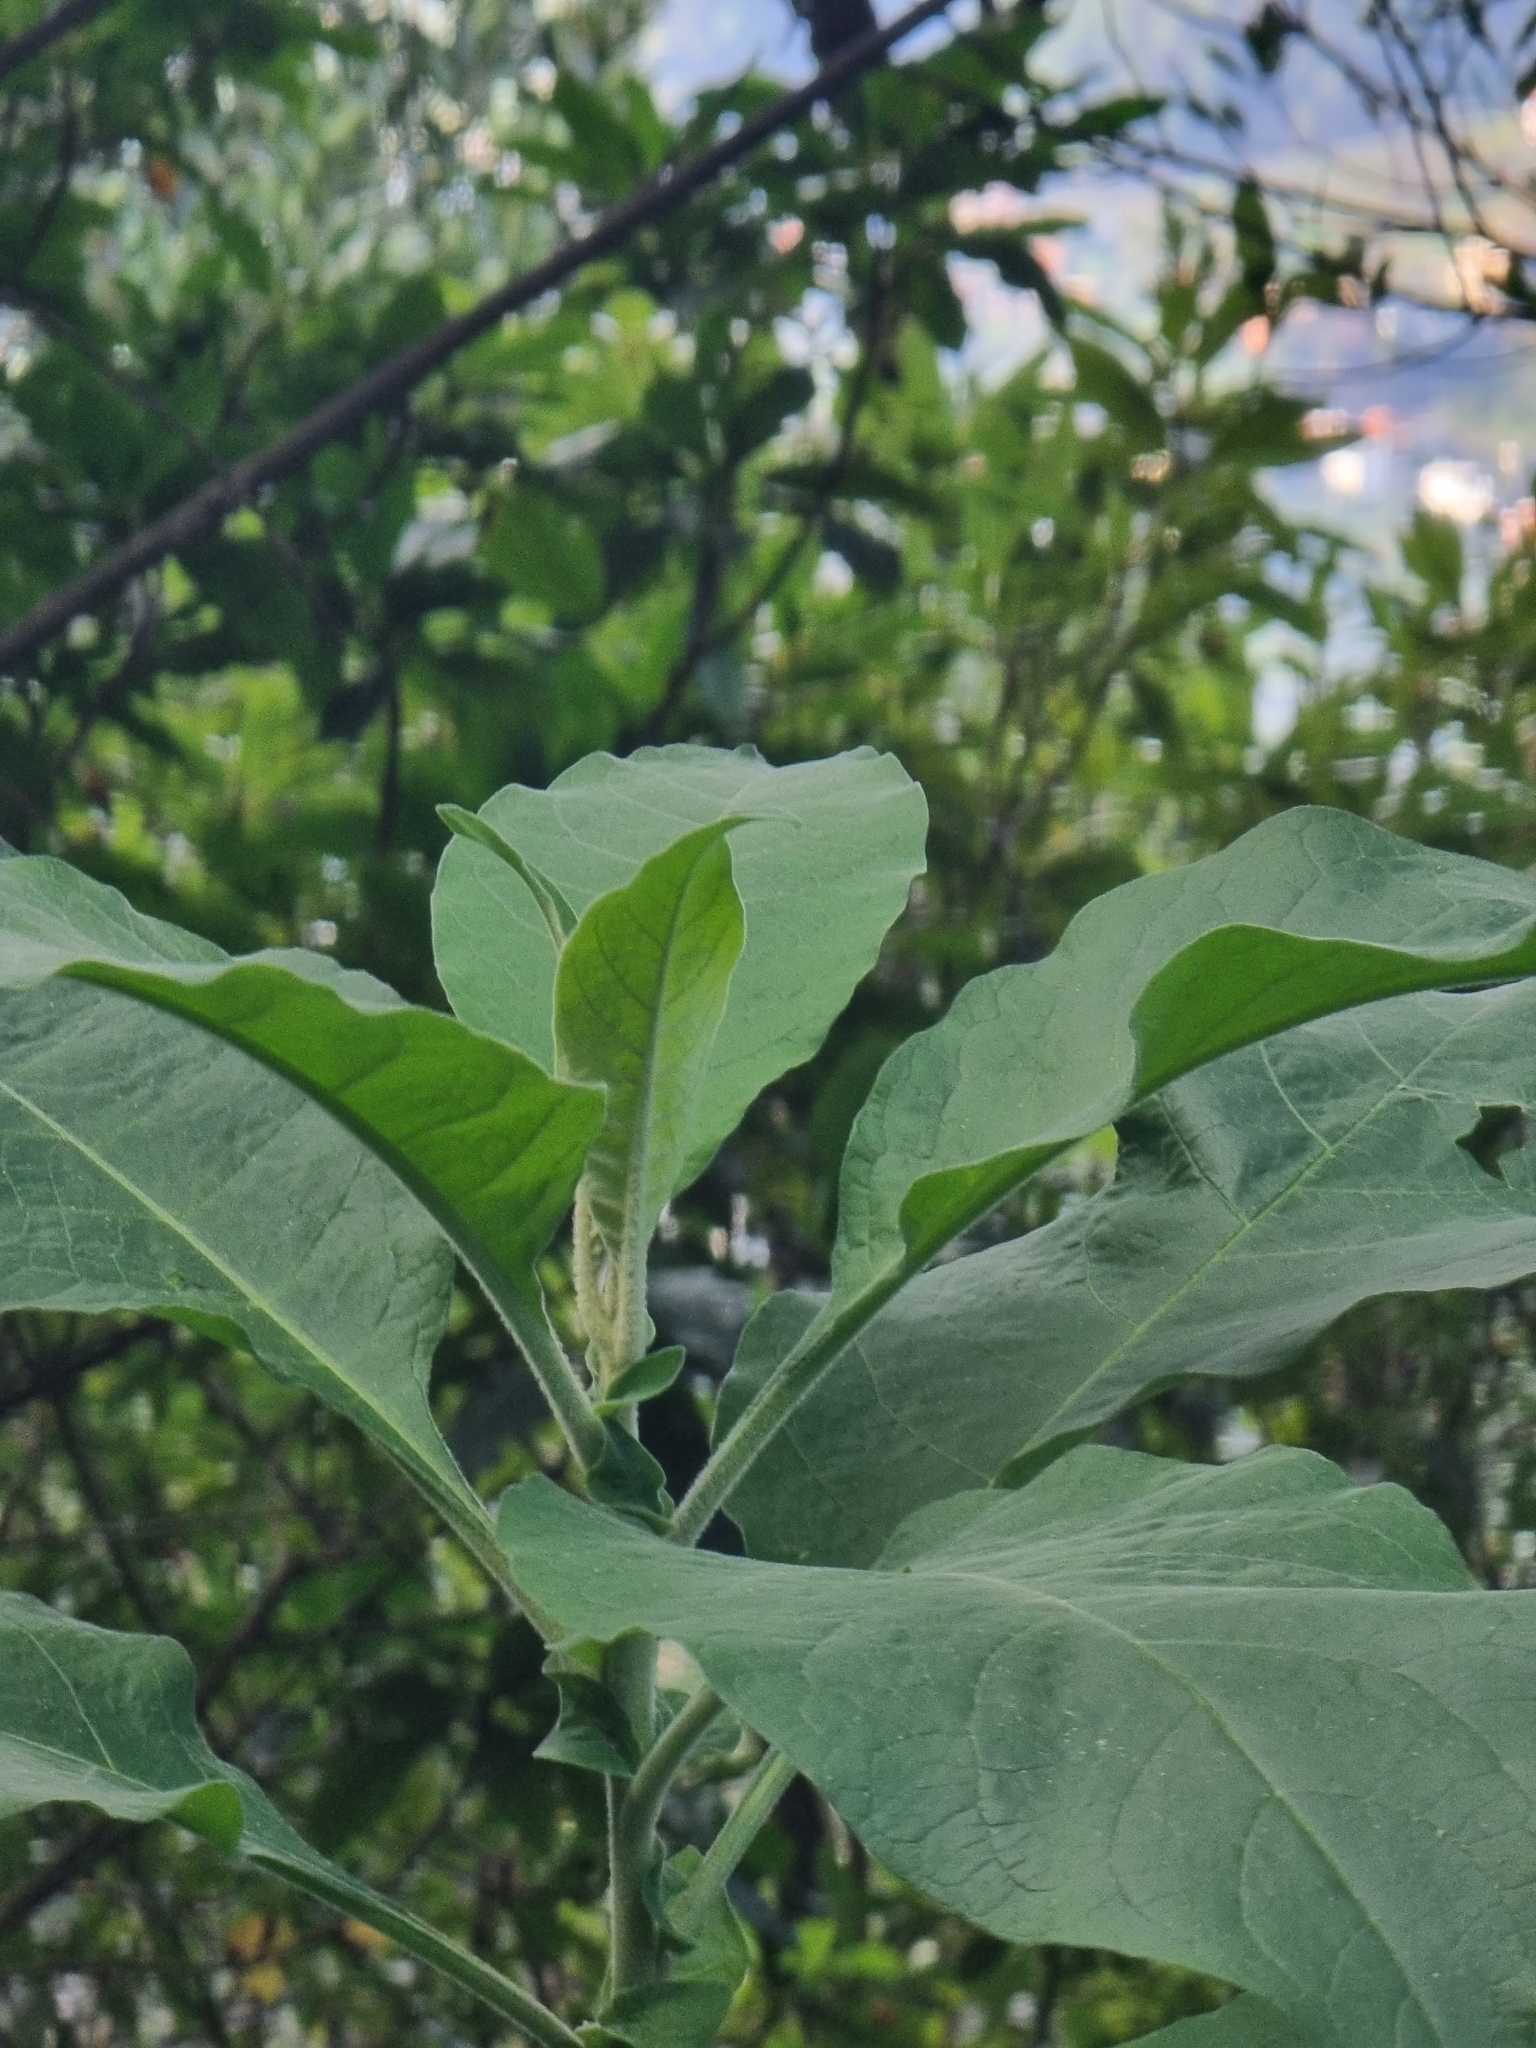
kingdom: Plantae
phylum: Tracheophyta
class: Magnoliopsida
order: Solanales
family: Solanaceae
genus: Solanum
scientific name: Solanum mauritianum
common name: Earleaf nightshade
